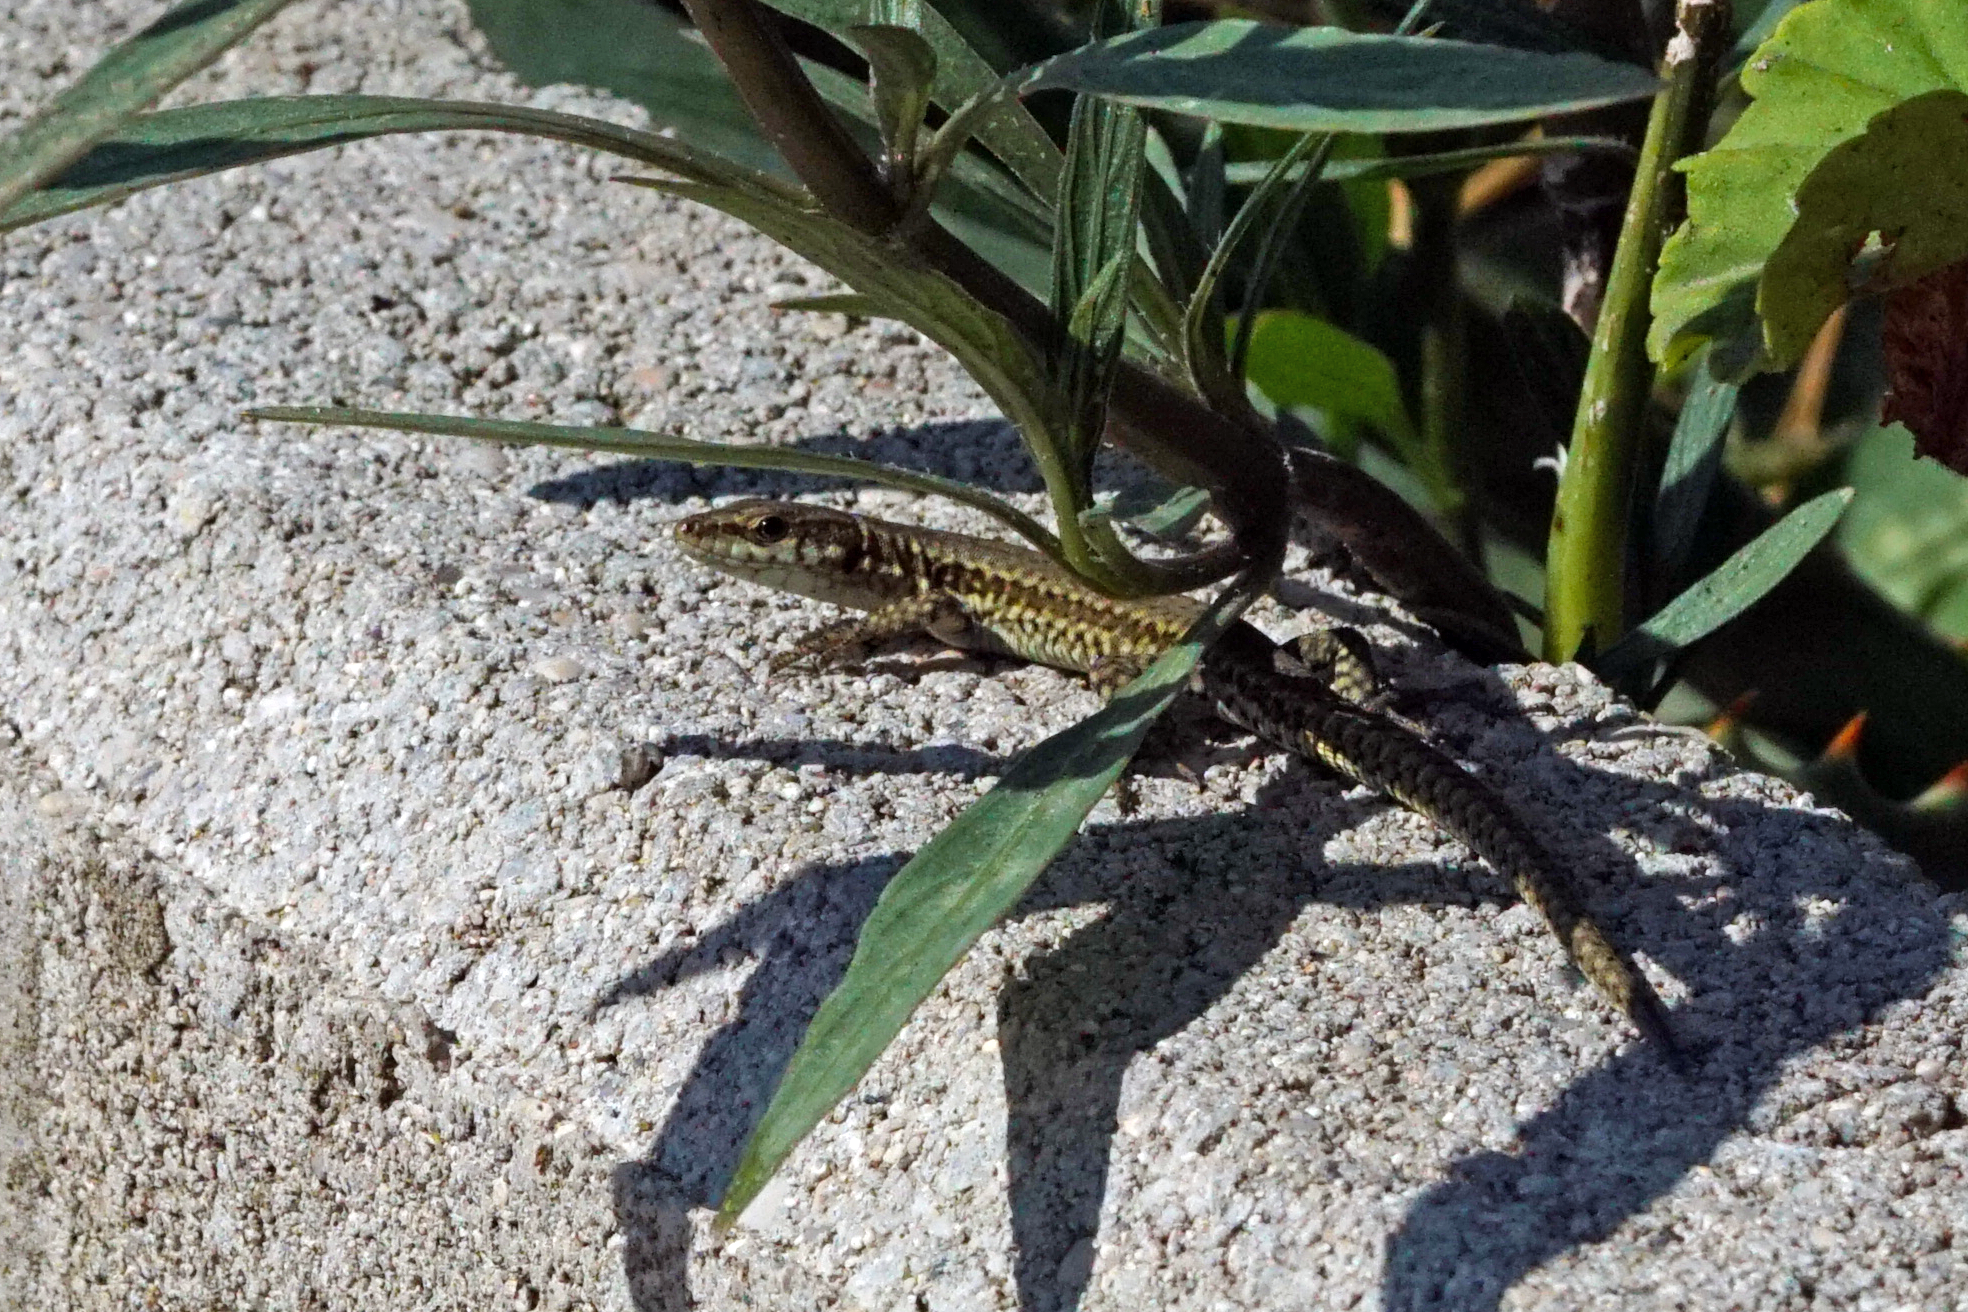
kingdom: Animalia
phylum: Chordata
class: Squamata
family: Lacertidae
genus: Podarcis
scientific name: Podarcis muralis
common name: Common wall lizard
